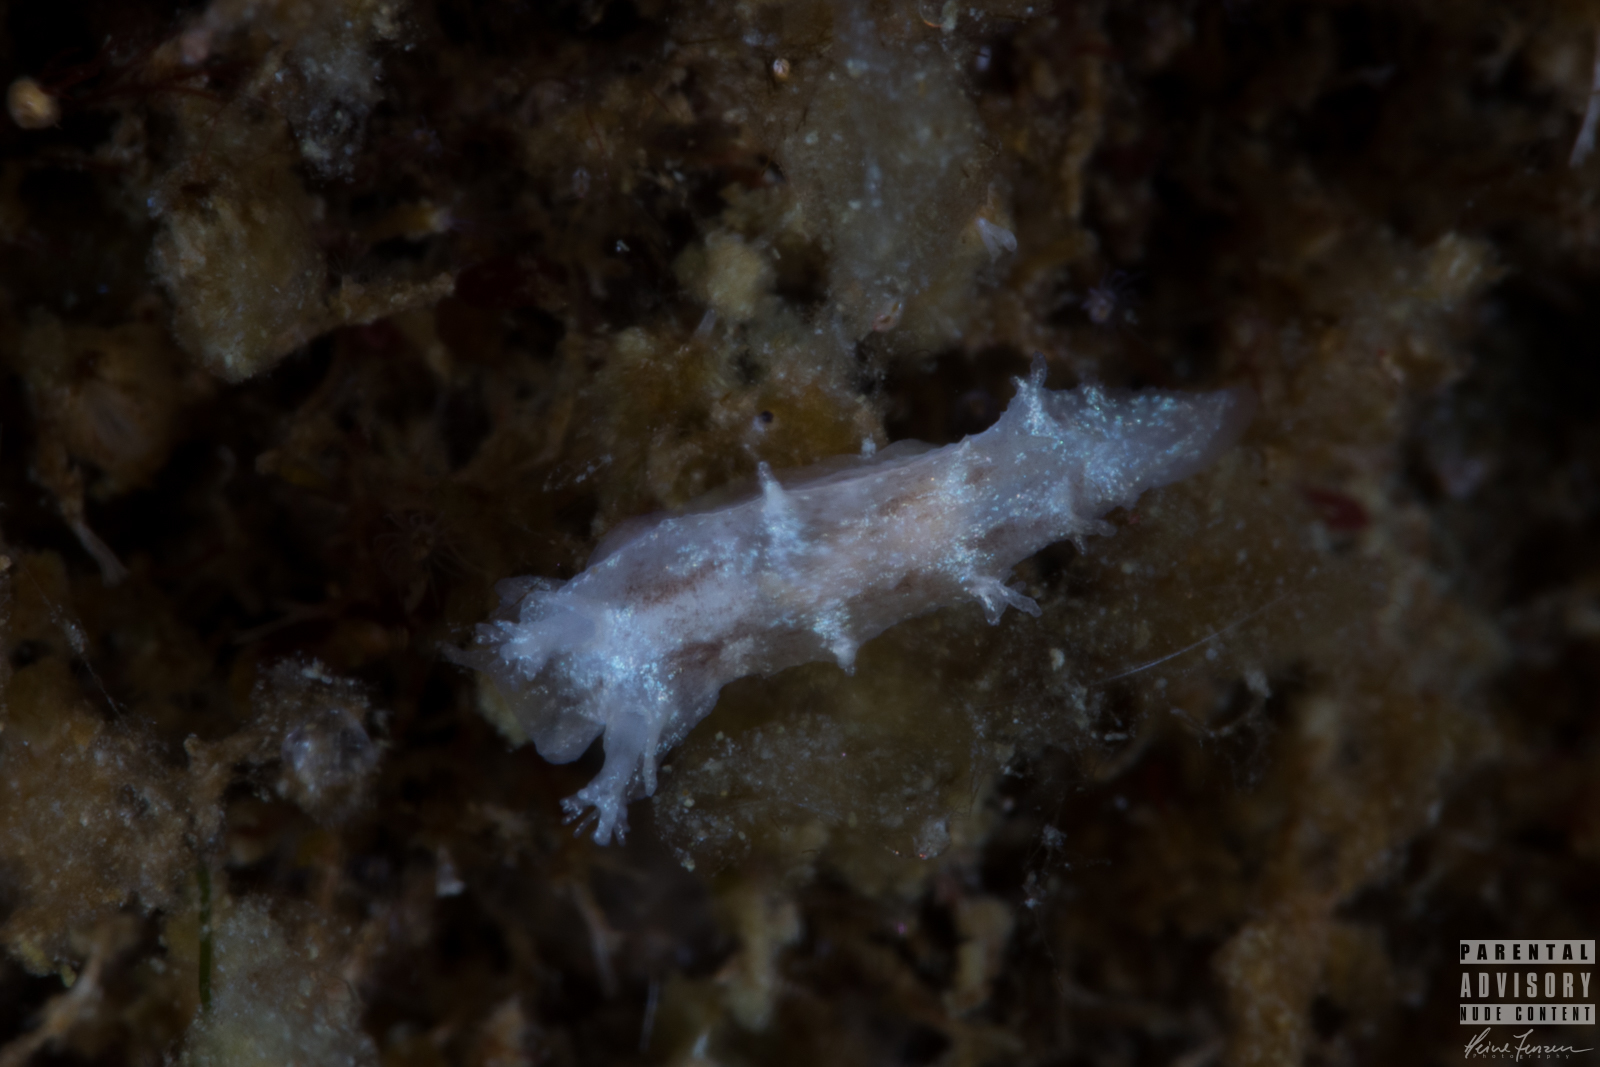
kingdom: Animalia
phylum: Mollusca
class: Gastropoda
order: Nudibranchia
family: Tritoniidae
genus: Duvaucelia
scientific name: Duvaucelia plebeia
